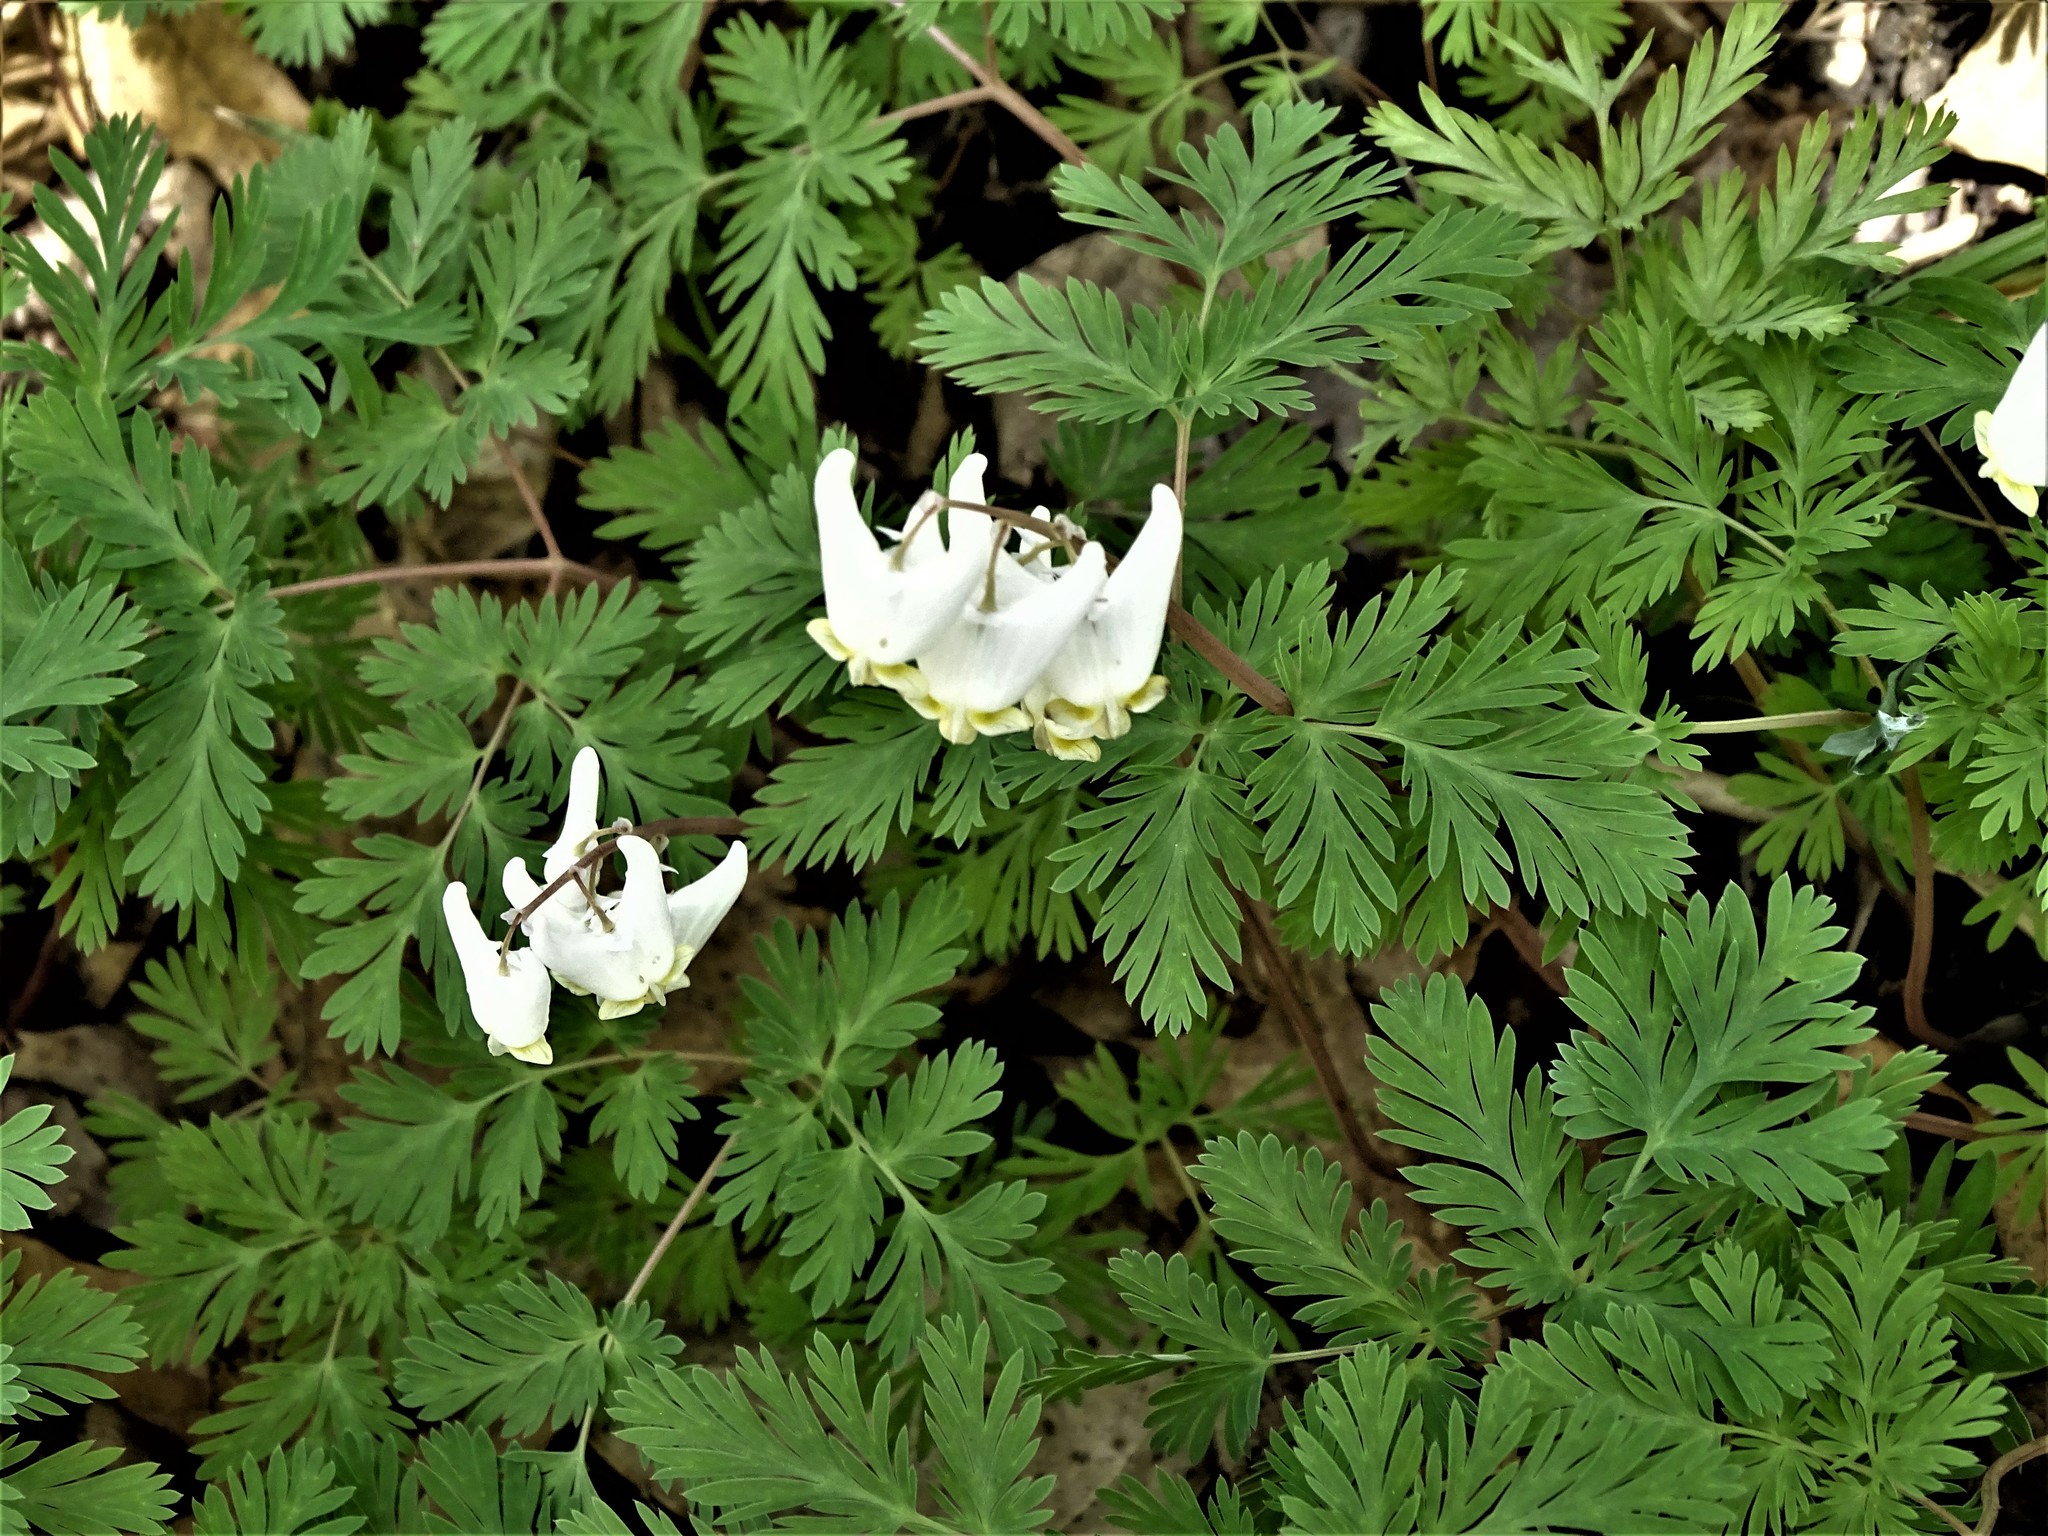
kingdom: Plantae
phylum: Tracheophyta
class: Magnoliopsida
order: Ranunculales
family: Papaveraceae
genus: Dicentra
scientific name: Dicentra cucullaria
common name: Dutchman's breeches
